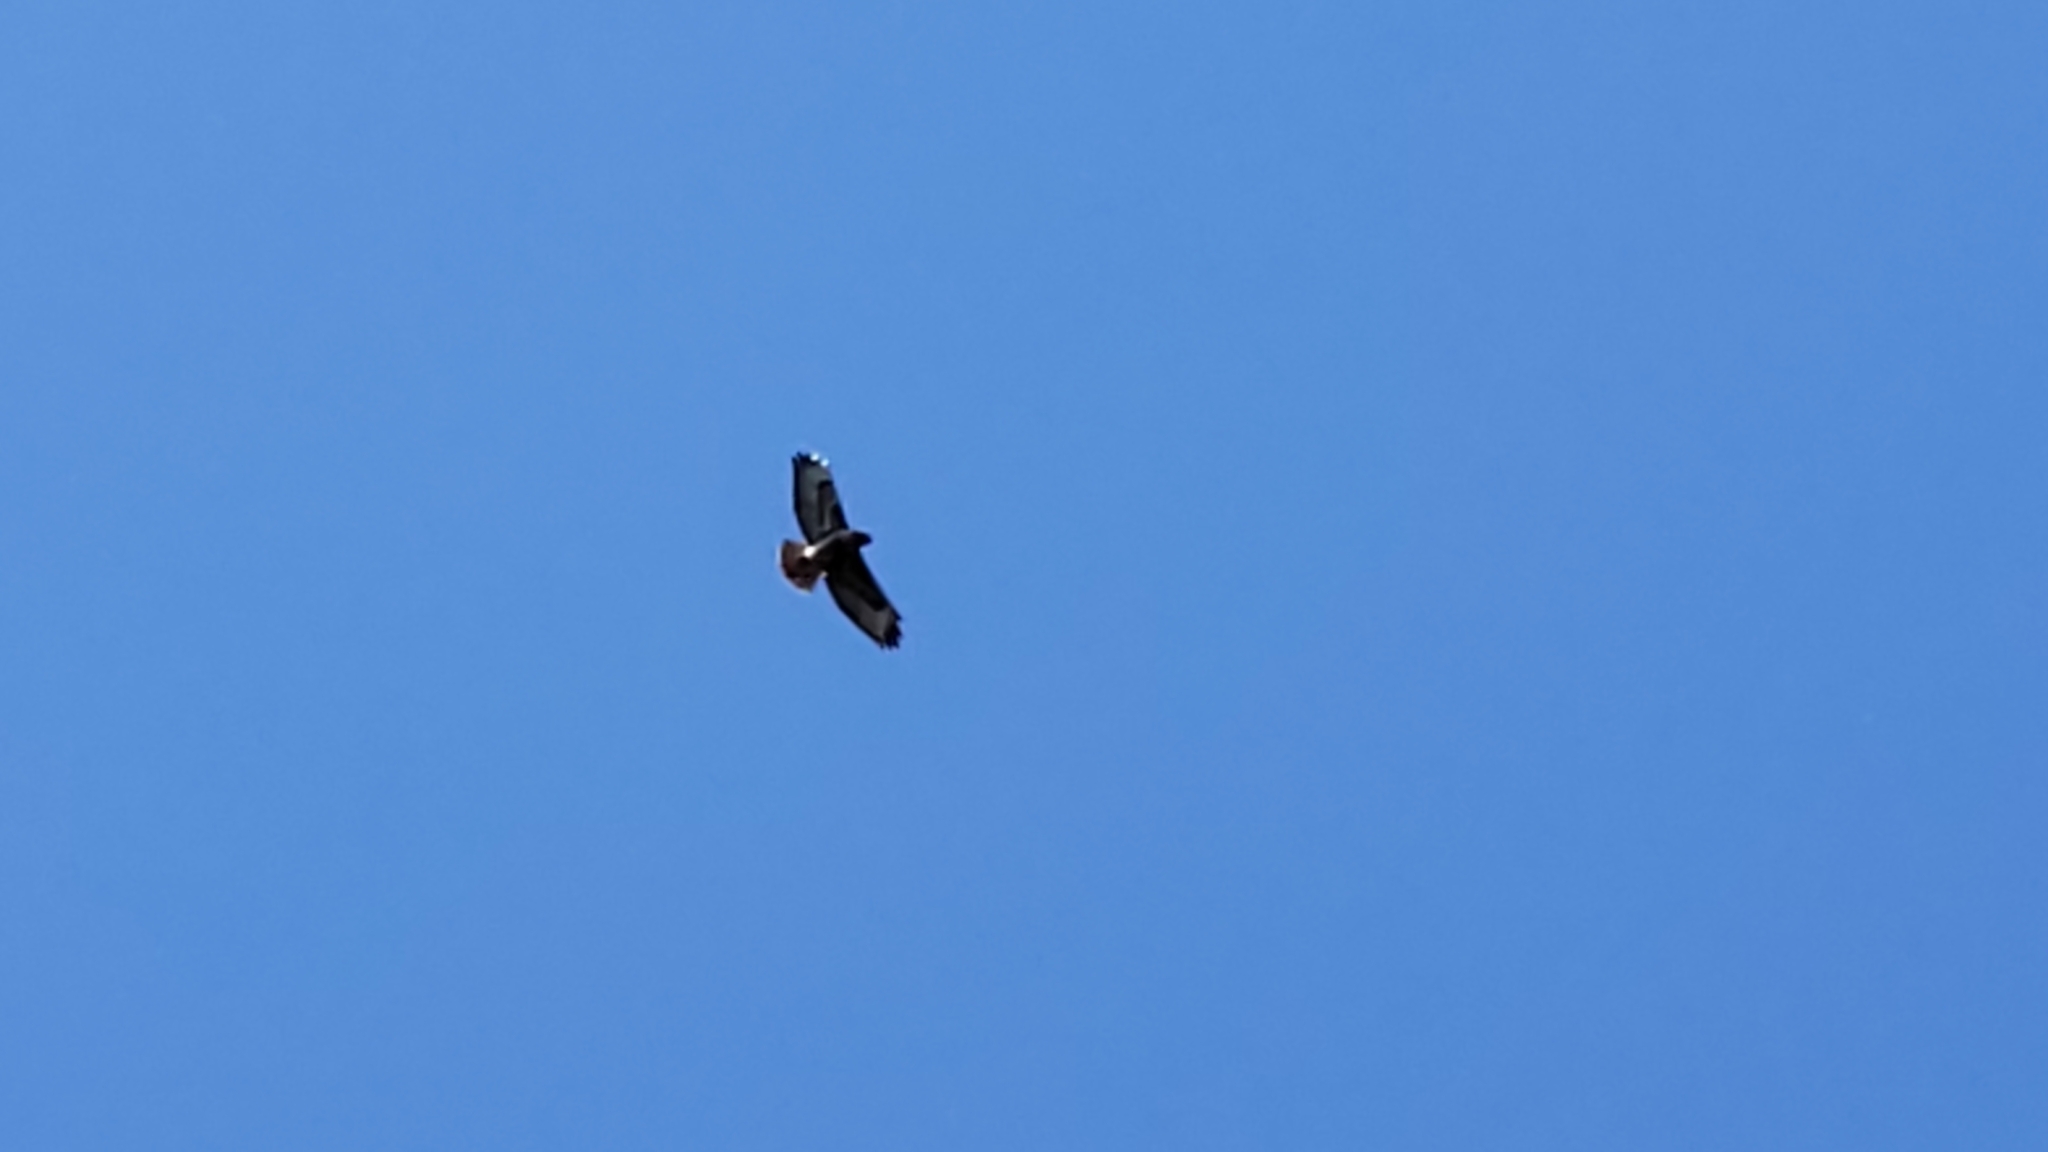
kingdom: Animalia
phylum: Chordata
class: Aves
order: Accipitriformes
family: Accipitridae
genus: Buteo
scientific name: Buteo jamaicensis
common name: Red-tailed hawk
